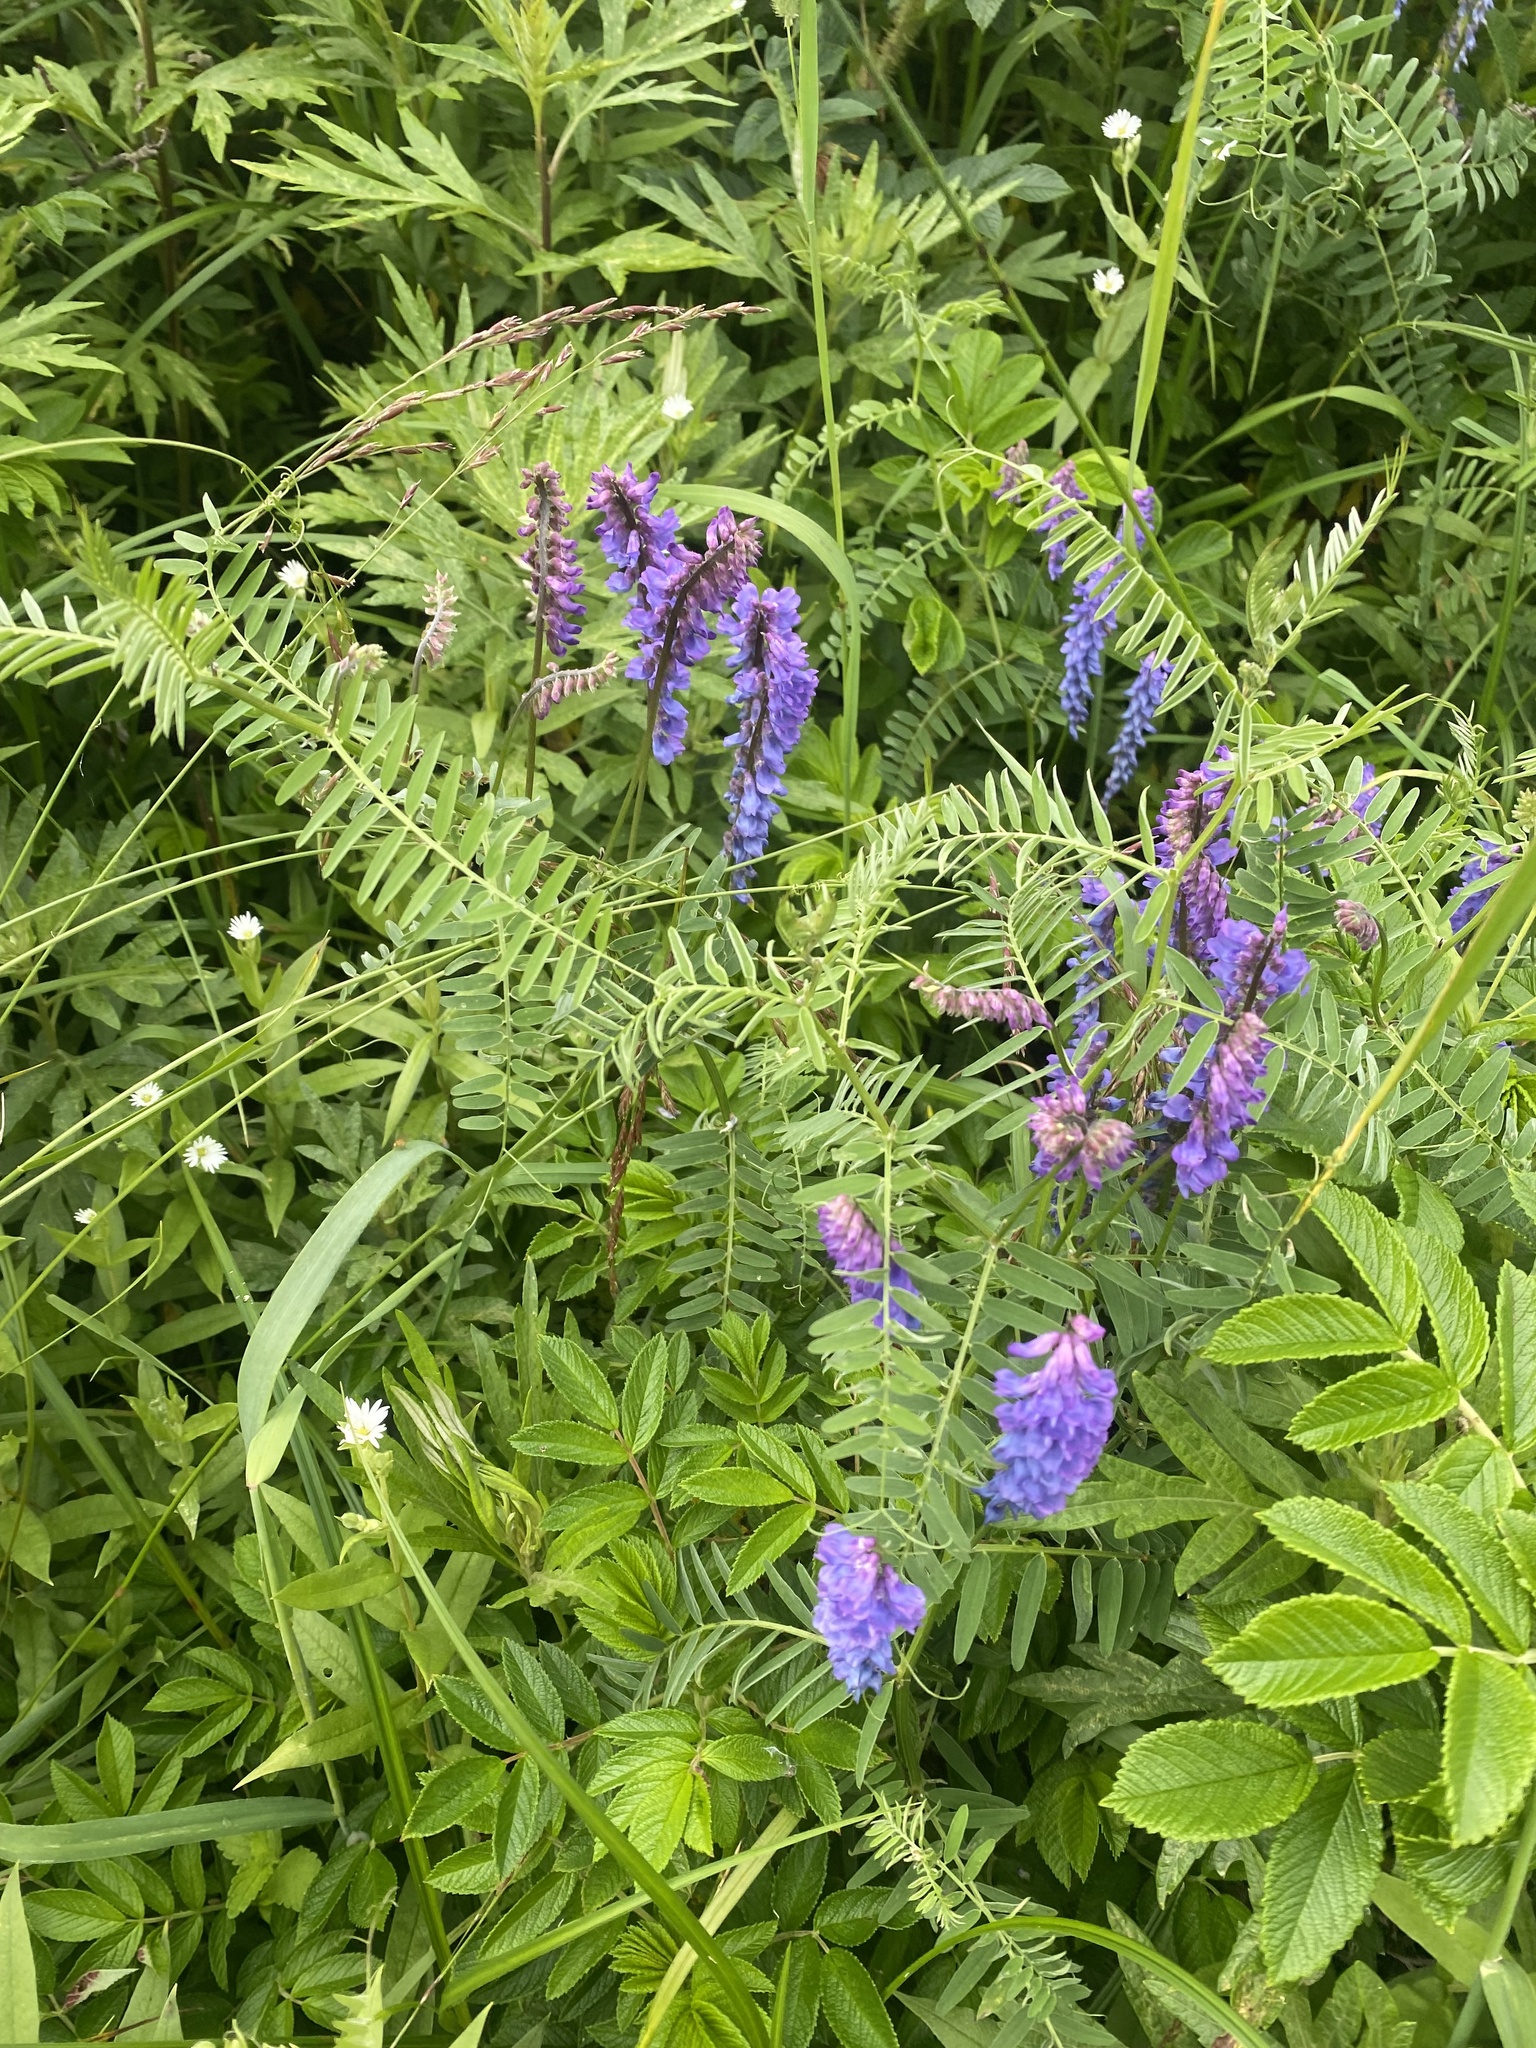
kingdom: Plantae
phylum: Tracheophyta
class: Magnoliopsida
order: Fabales
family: Fabaceae
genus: Vicia
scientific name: Vicia cracca
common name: Bird vetch
